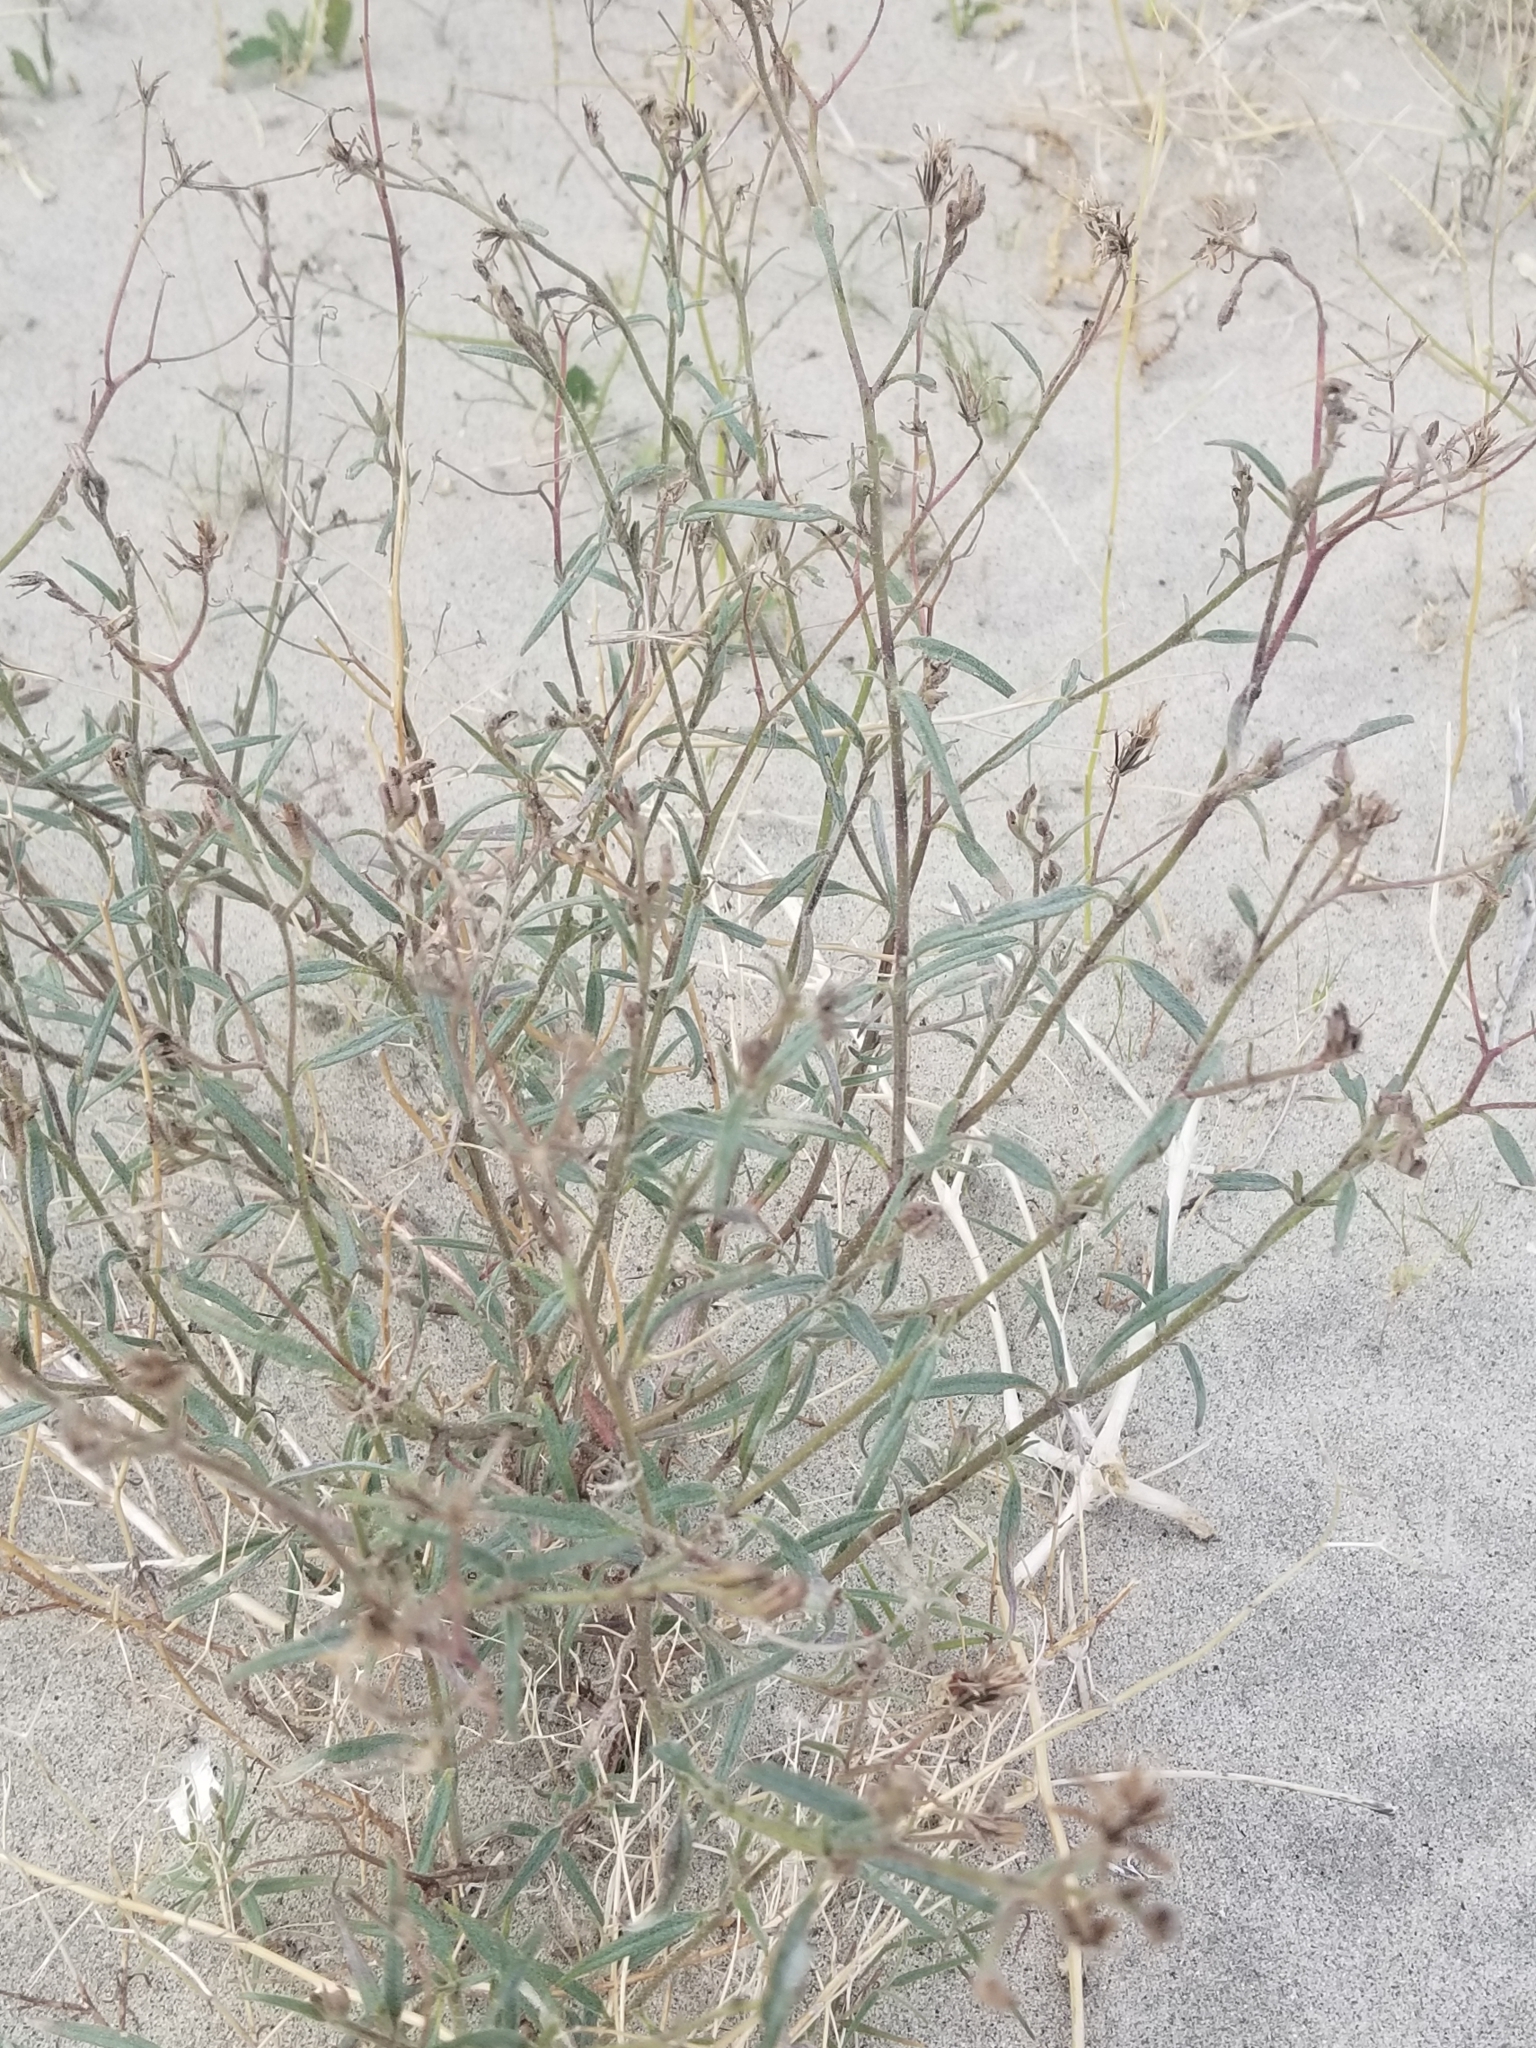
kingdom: Plantae
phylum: Tracheophyta
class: Magnoliopsida
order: Asterales
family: Asteraceae
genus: Palafoxia
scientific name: Palafoxia arida
